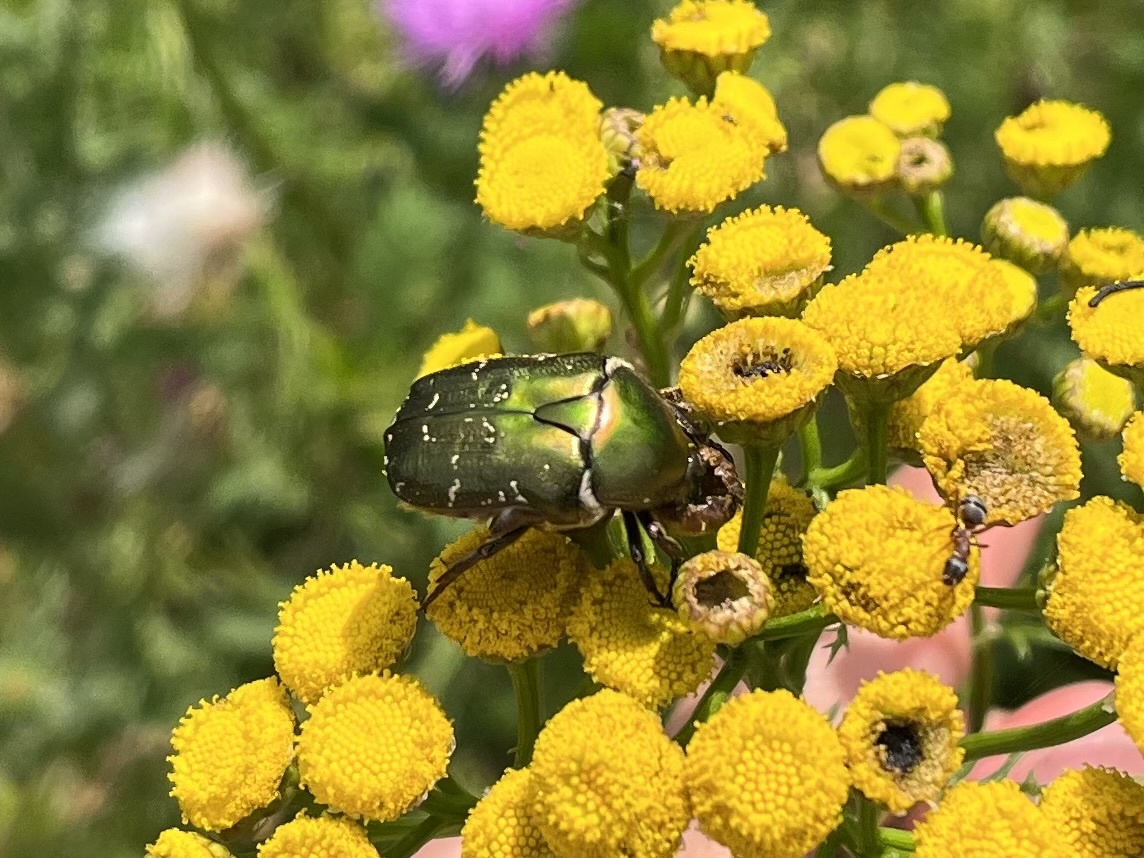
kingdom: Animalia
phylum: Arthropoda
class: Insecta
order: Coleoptera
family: Scarabaeidae
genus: Protaetia
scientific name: Protaetia cuprea
